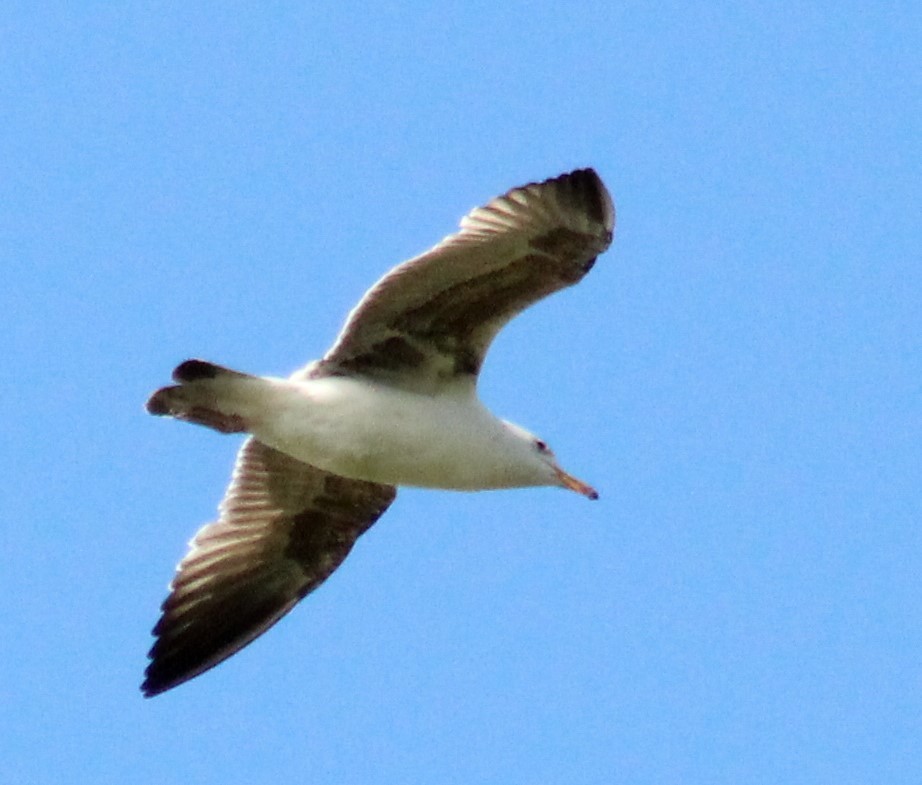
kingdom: Animalia
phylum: Chordata
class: Aves
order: Charadriiformes
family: Laridae
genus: Larus
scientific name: Larus fuscus
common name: Lesser black-backed gull
